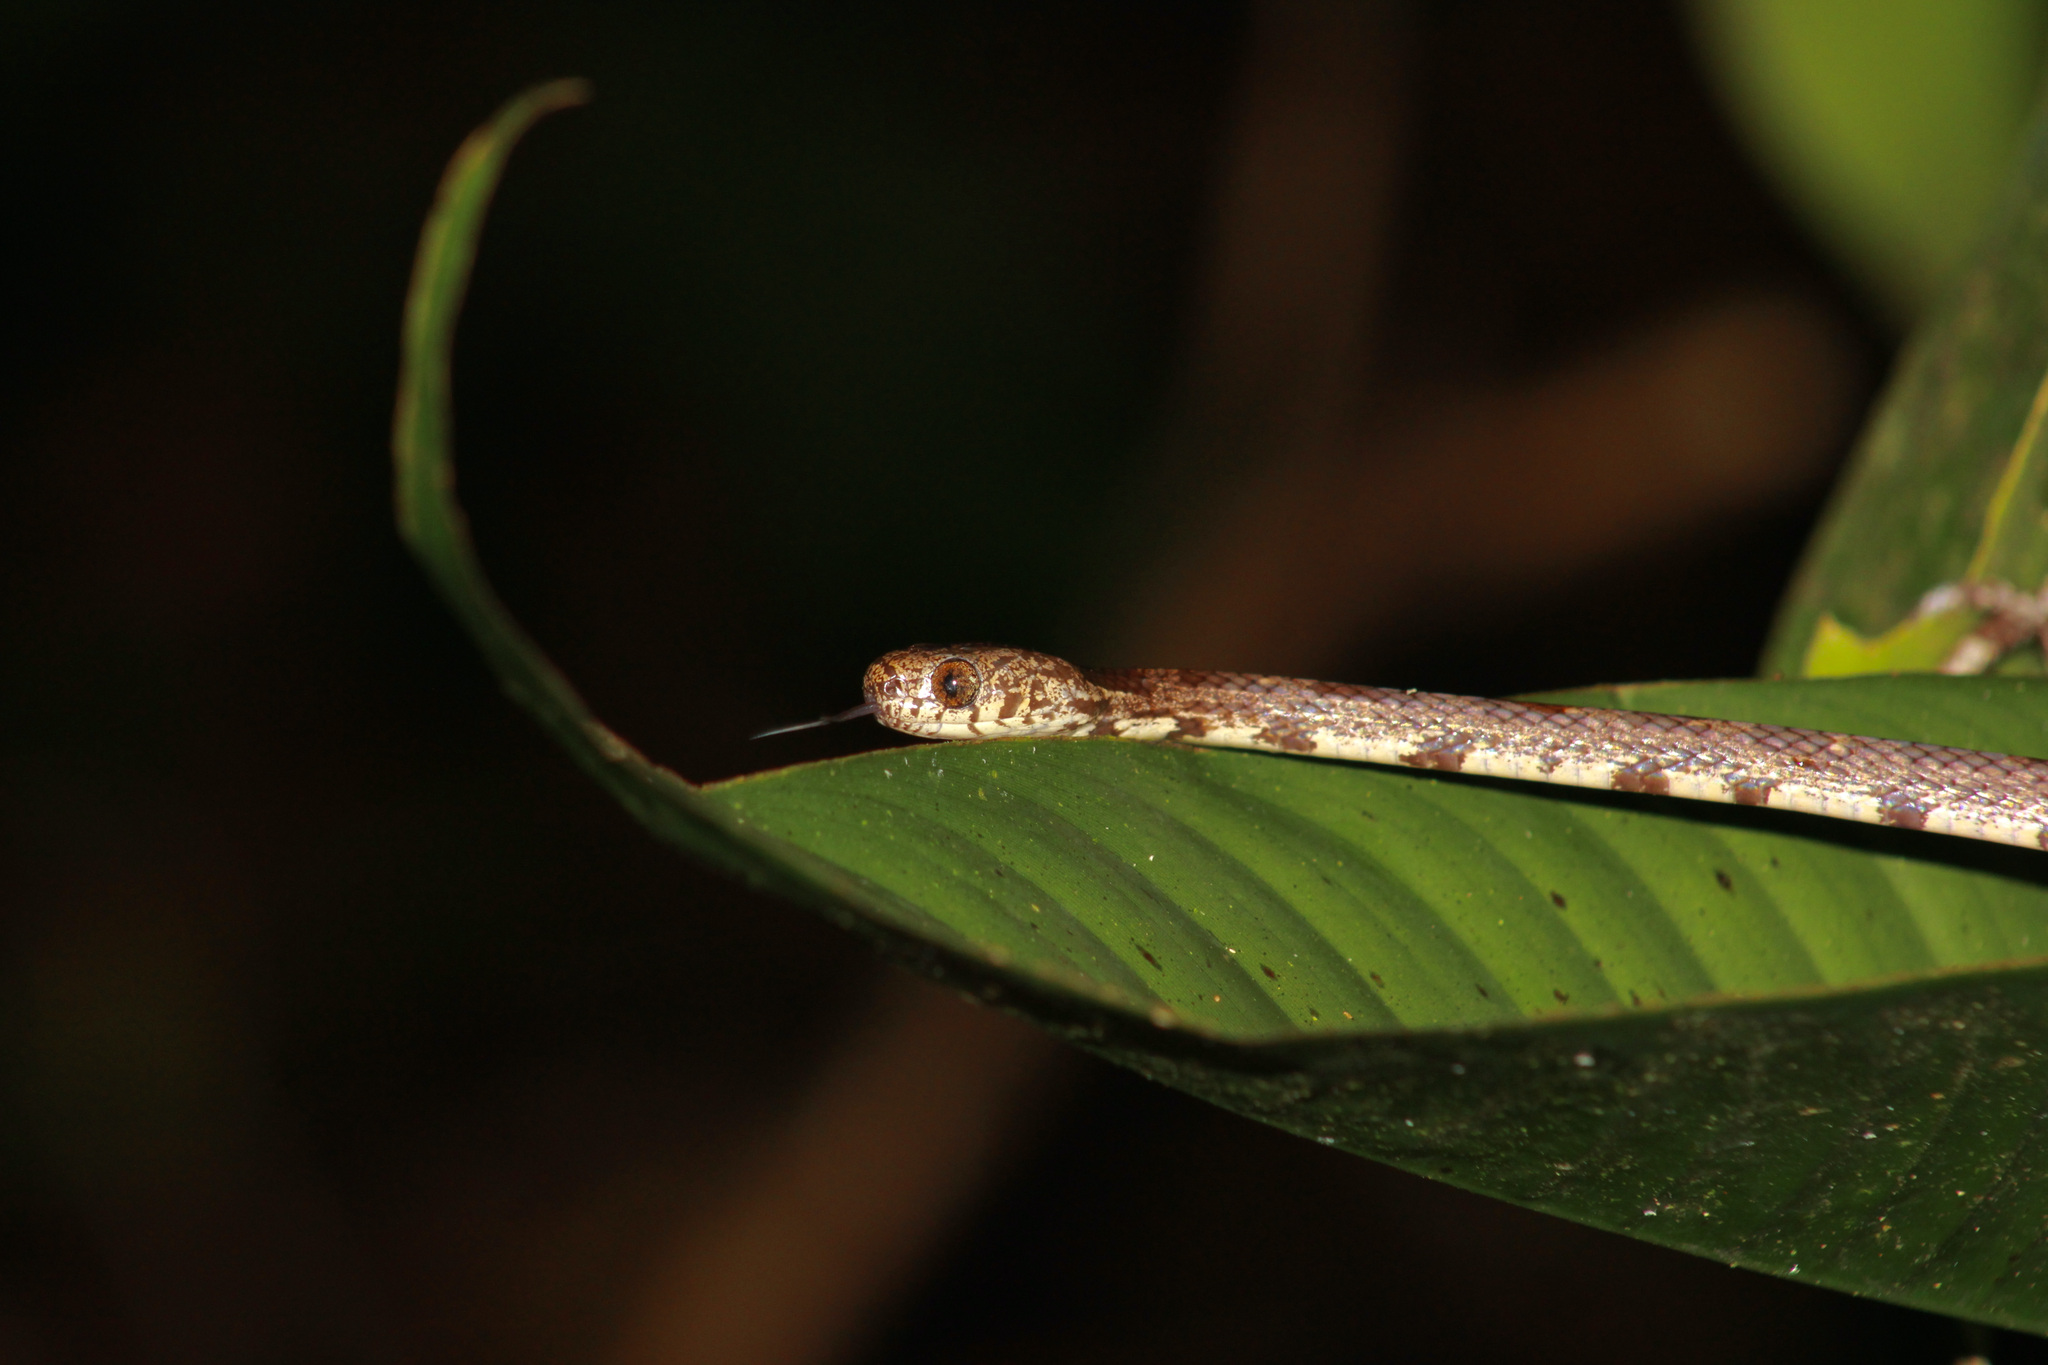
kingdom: Animalia
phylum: Chordata
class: Squamata
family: Colubridae
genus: Sibon
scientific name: Sibon nebulatus
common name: Cloudy snail-eating snake
